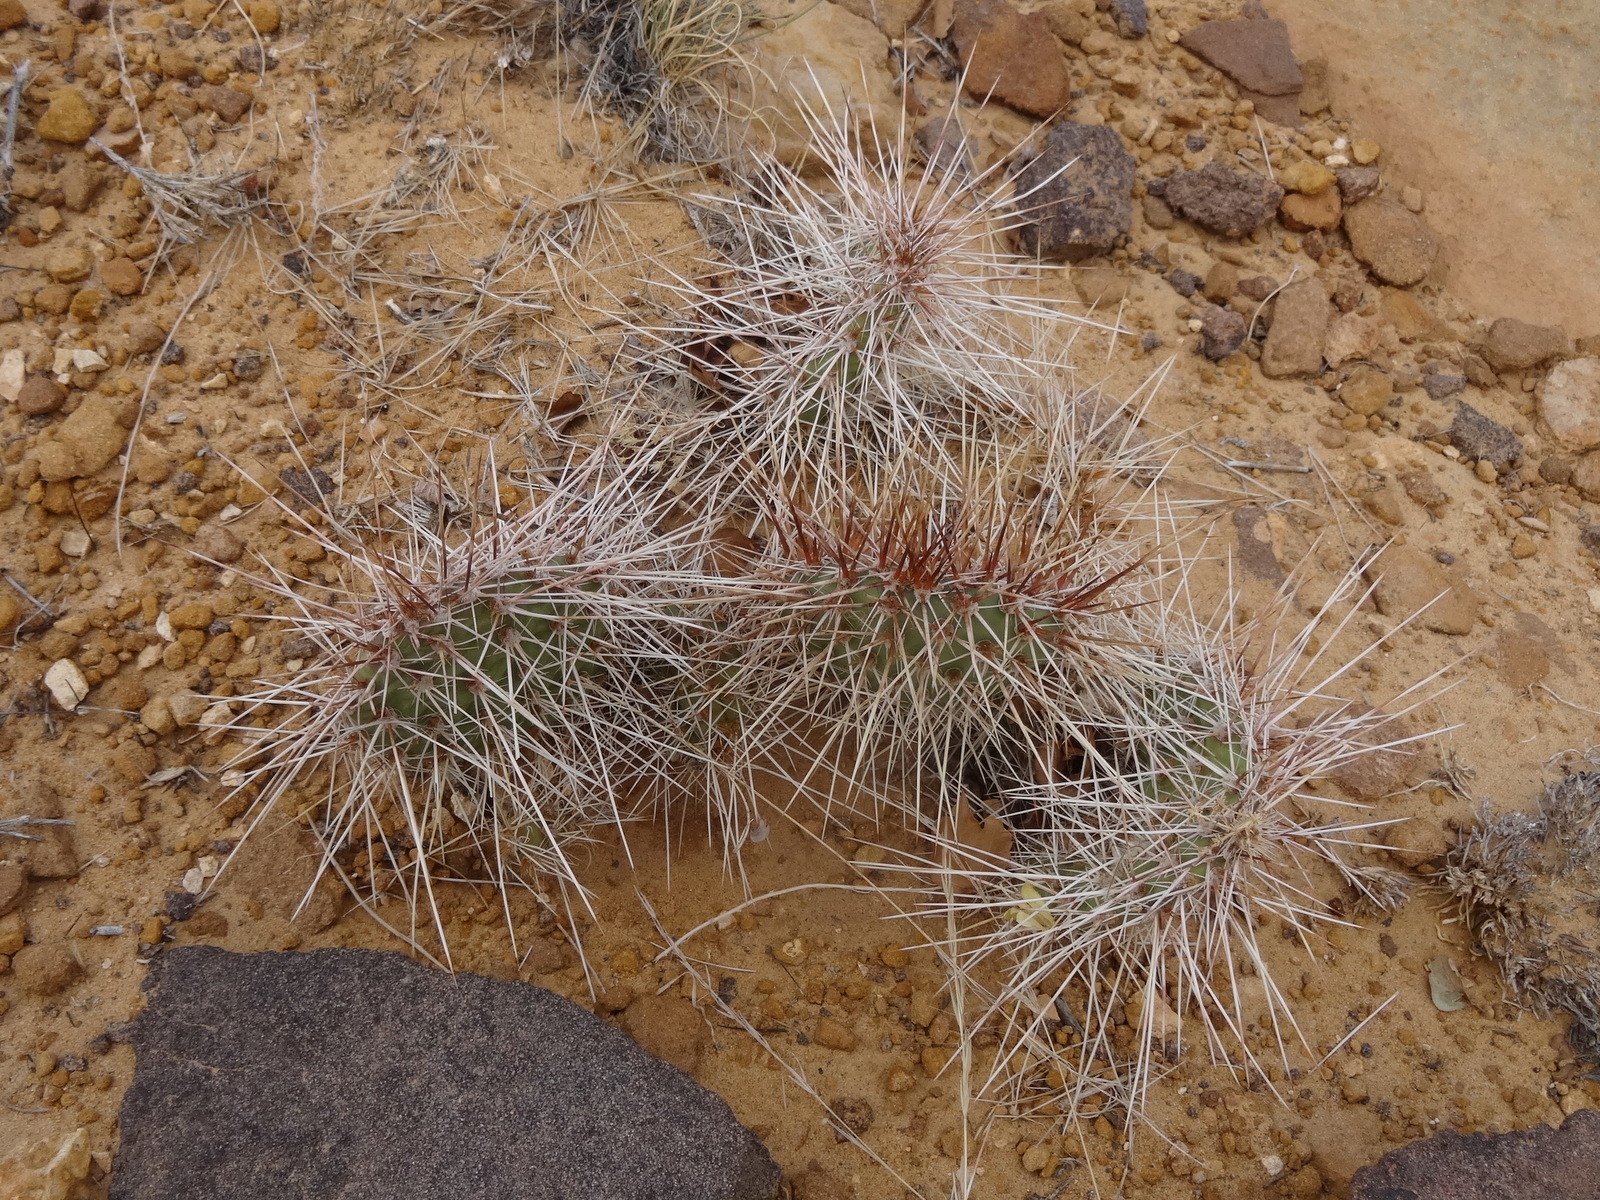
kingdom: Plantae
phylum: Tracheophyta
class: Magnoliopsida
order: Caryophyllales
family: Cactaceae
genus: Opuntia
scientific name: Opuntia polyacantha
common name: Plains prickly-pear
